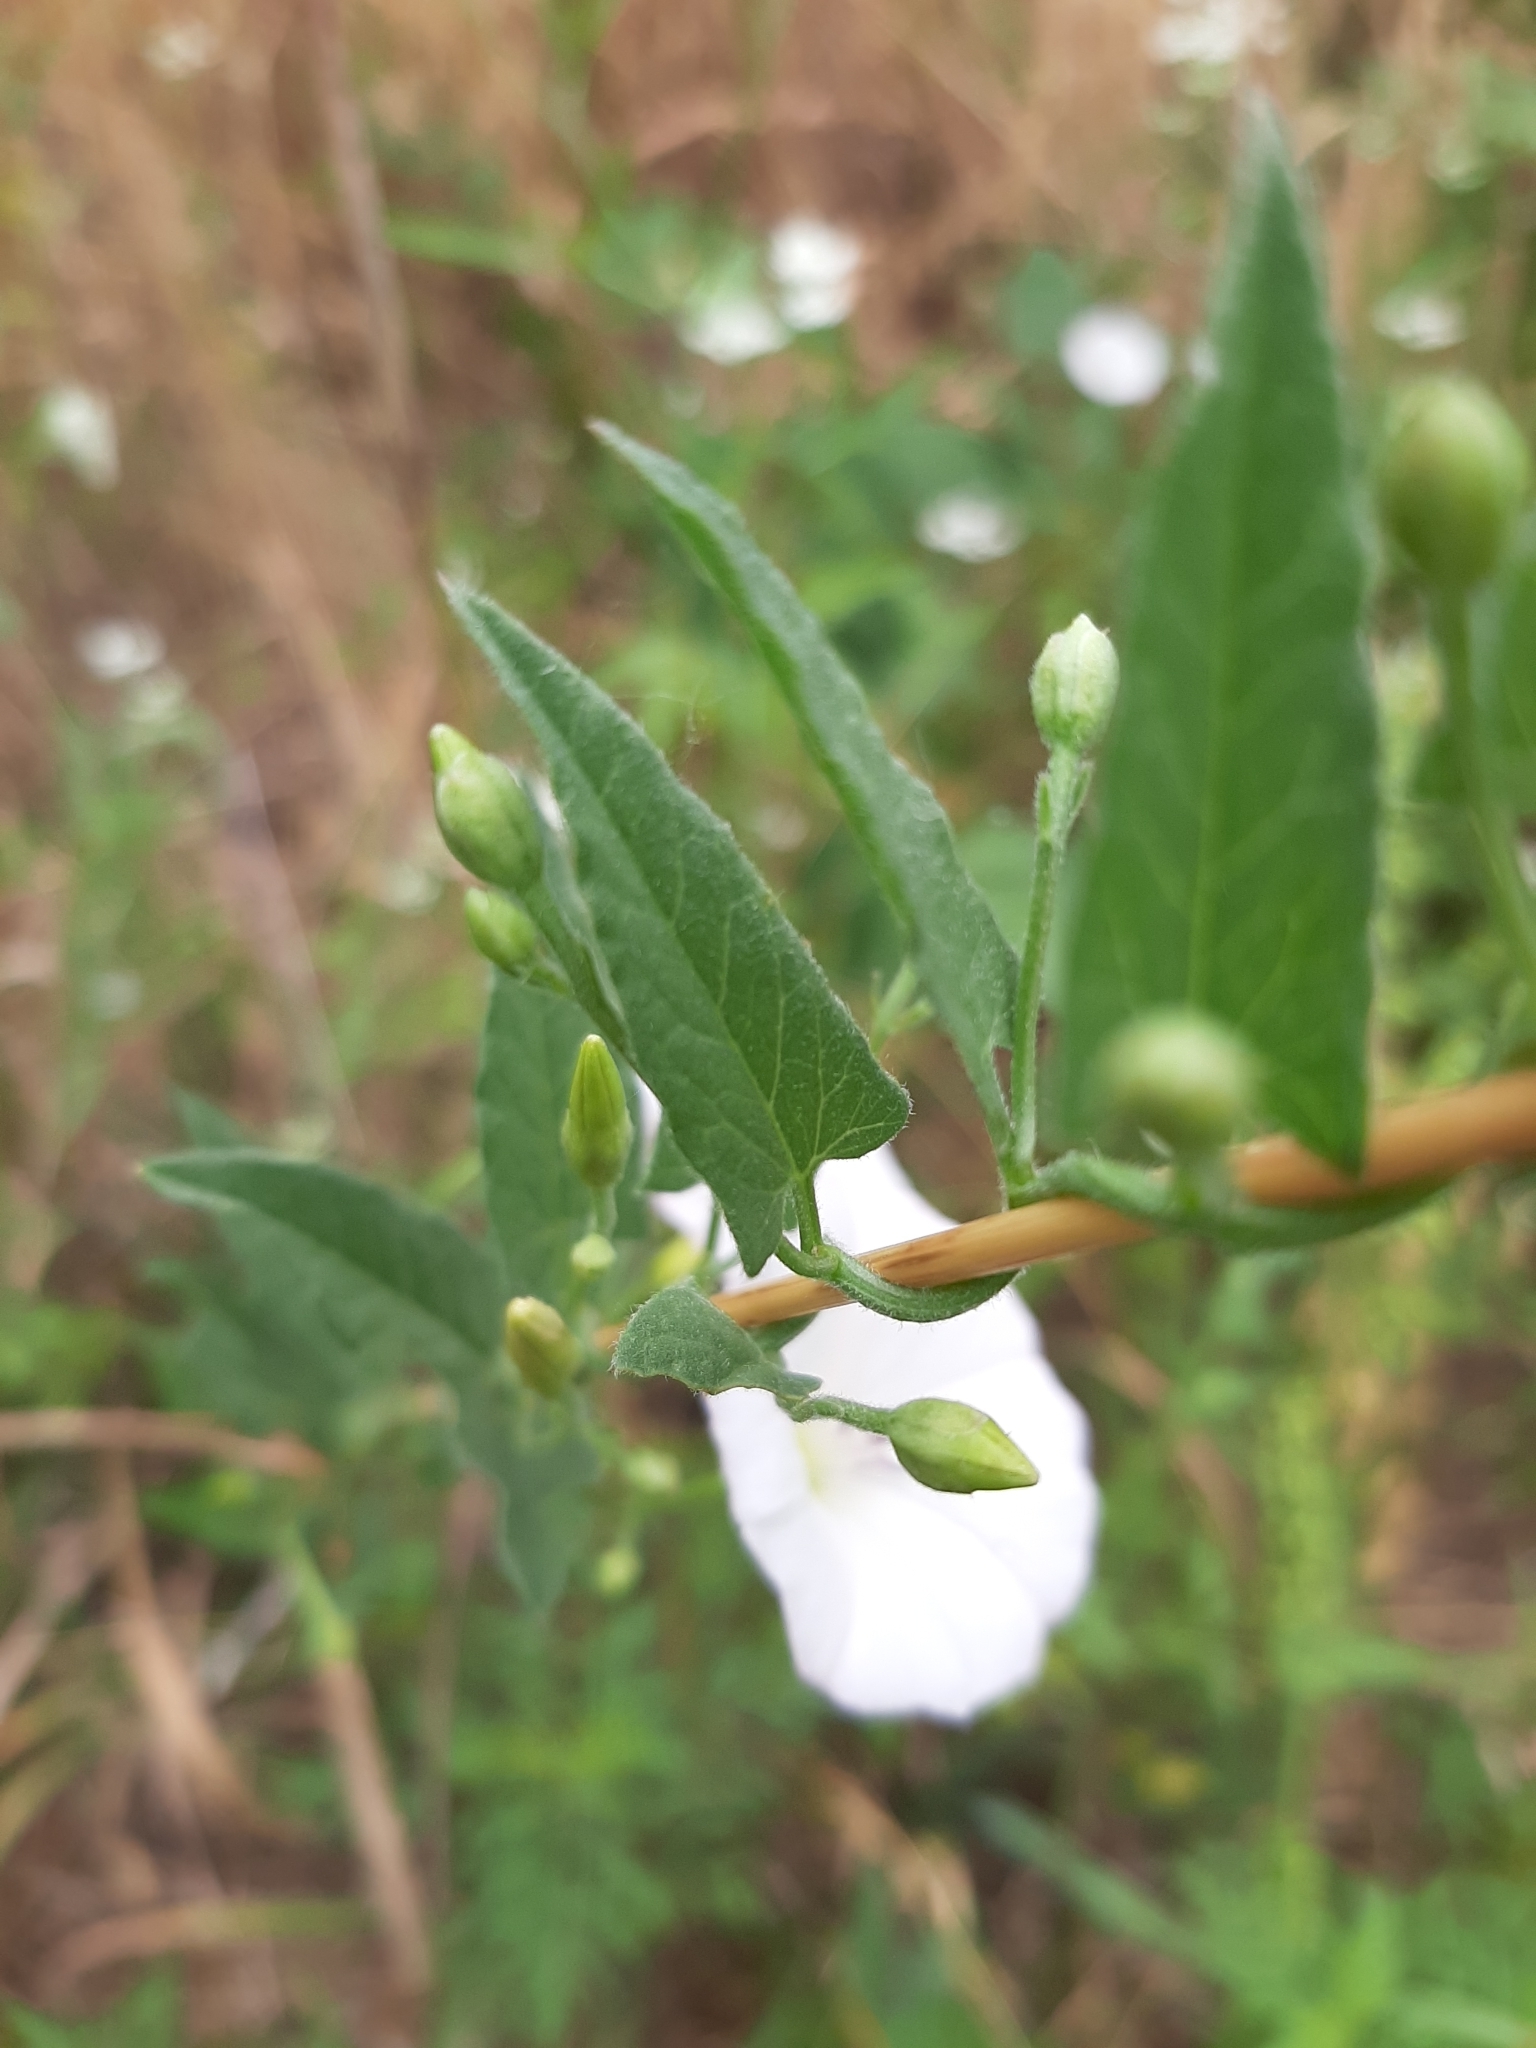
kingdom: Plantae
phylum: Tracheophyta
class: Magnoliopsida
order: Solanales
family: Convolvulaceae
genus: Convolvulus
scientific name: Convolvulus arvensis
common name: Field bindweed
